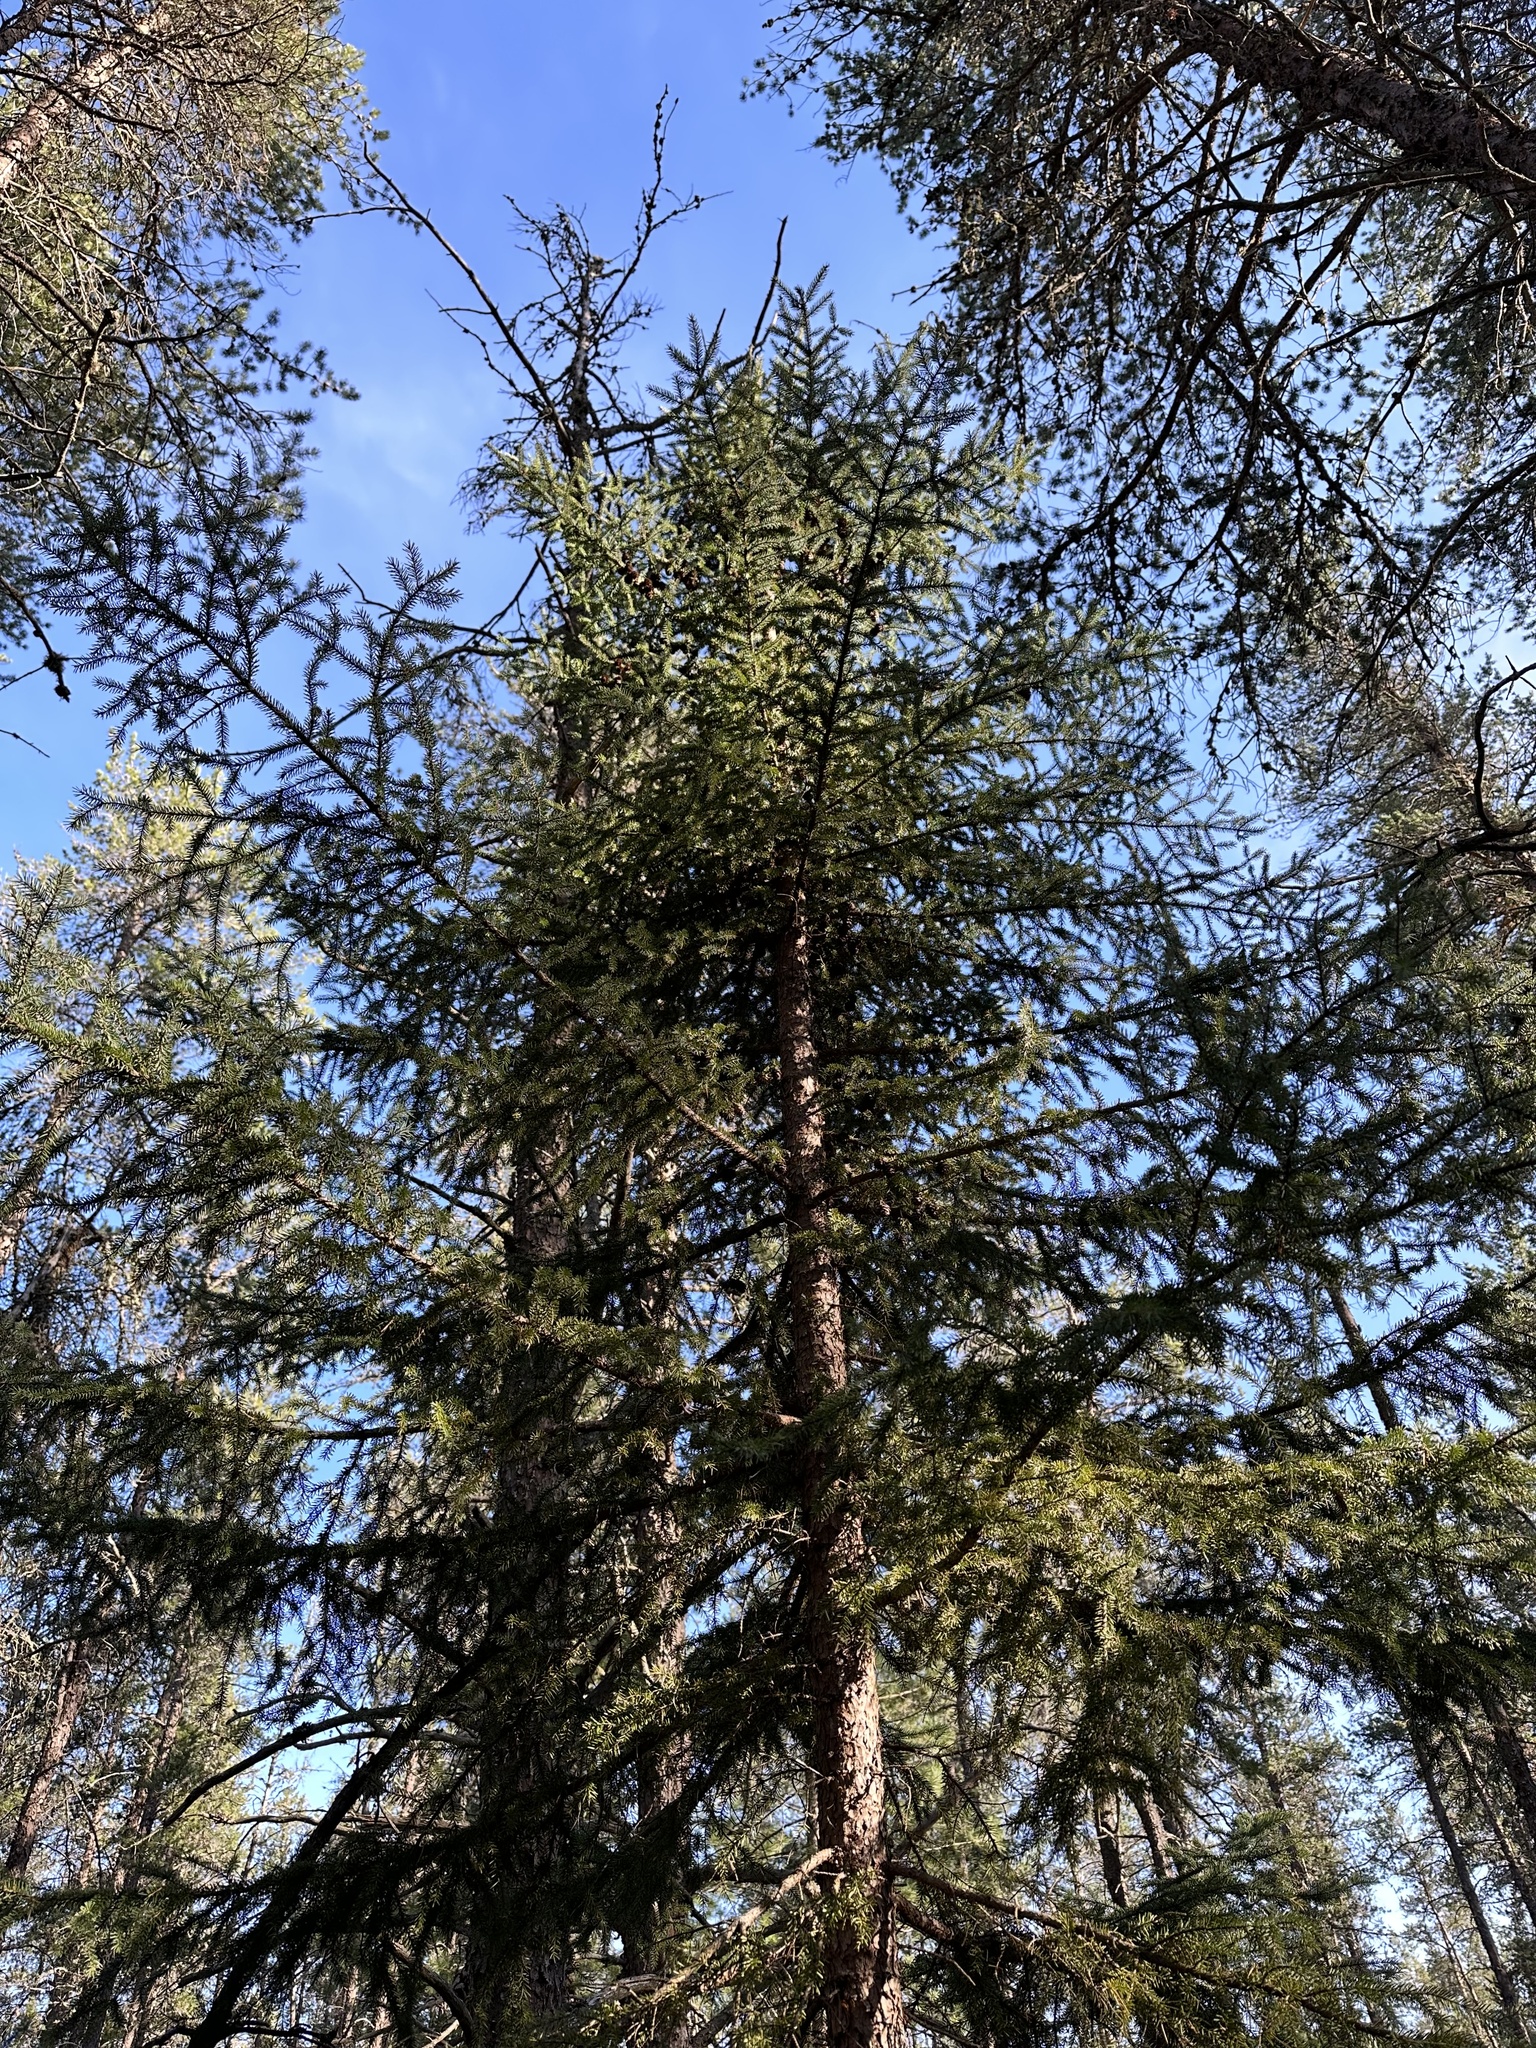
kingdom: Plantae
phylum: Tracheophyta
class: Pinopsida
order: Pinales
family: Pinaceae
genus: Picea
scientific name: Picea glauca
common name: White spruce
